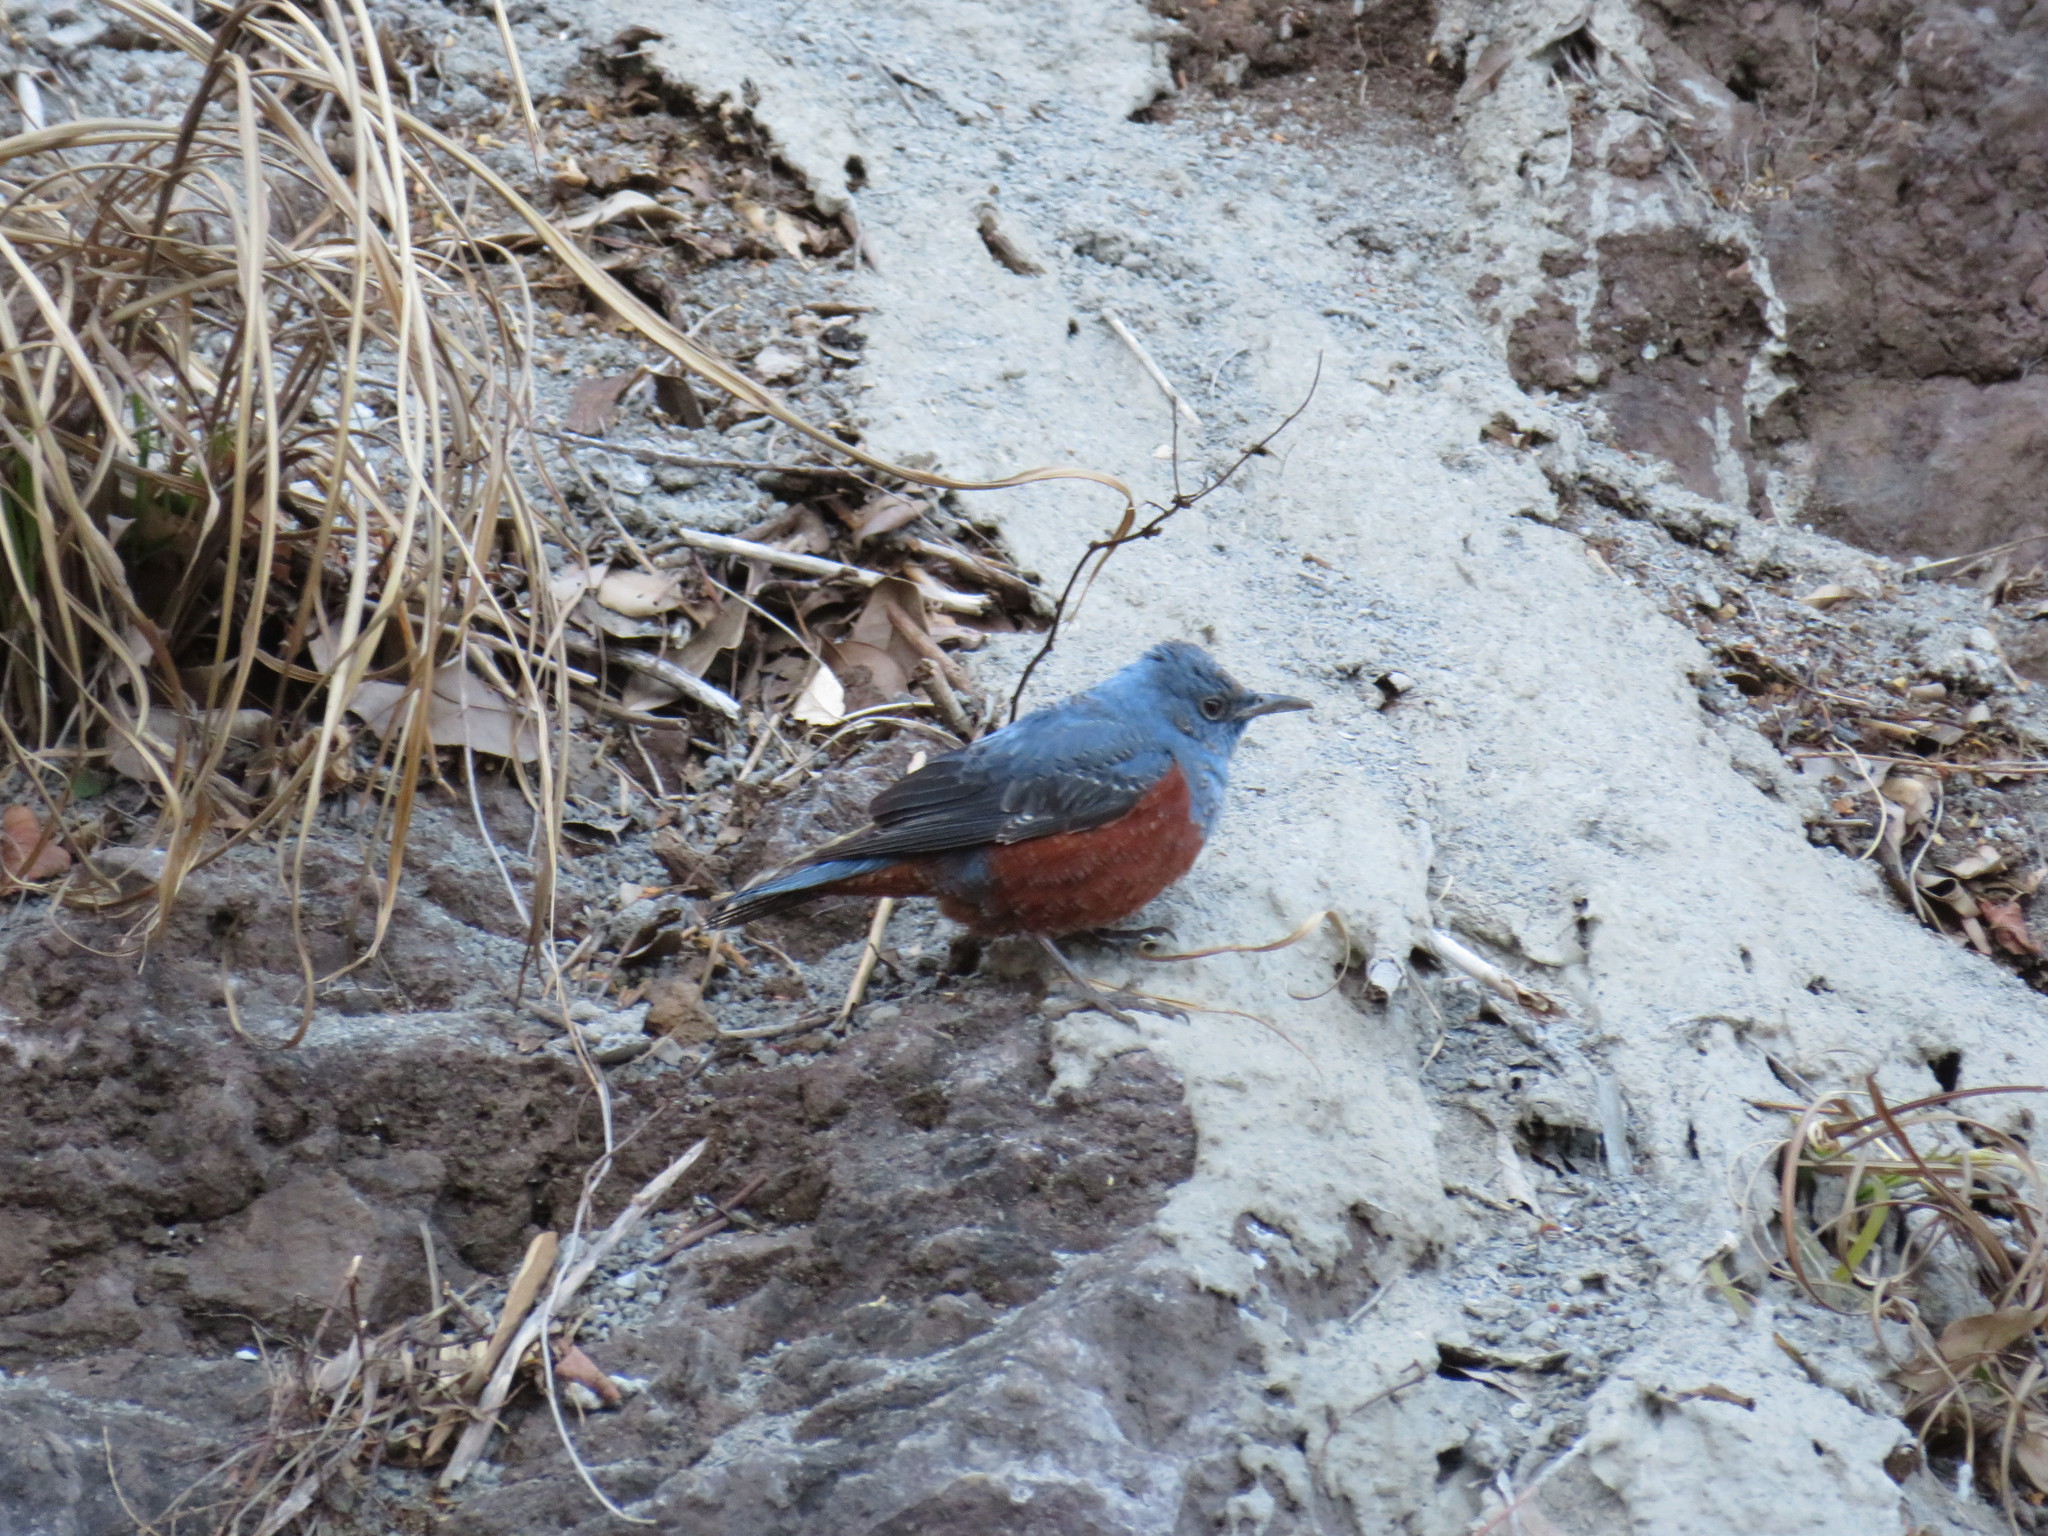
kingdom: Animalia
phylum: Chordata
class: Aves
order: Passeriformes
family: Muscicapidae
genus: Monticola
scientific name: Monticola solitarius
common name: Blue rock thrush
